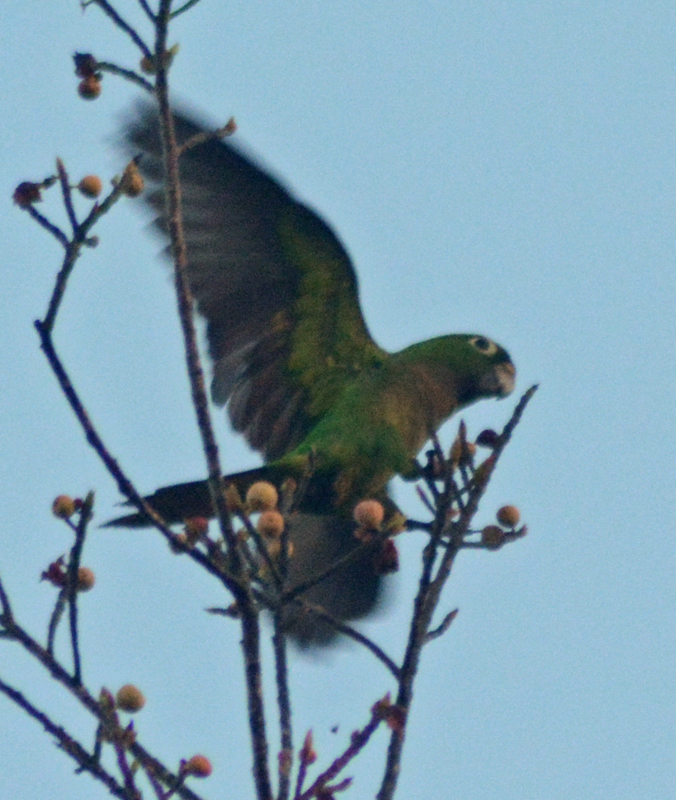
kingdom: Animalia
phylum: Chordata
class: Aves
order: Psittaciformes
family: Psittacidae
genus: Aratinga
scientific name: Aratinga nana
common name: Olive-throated parakeet
